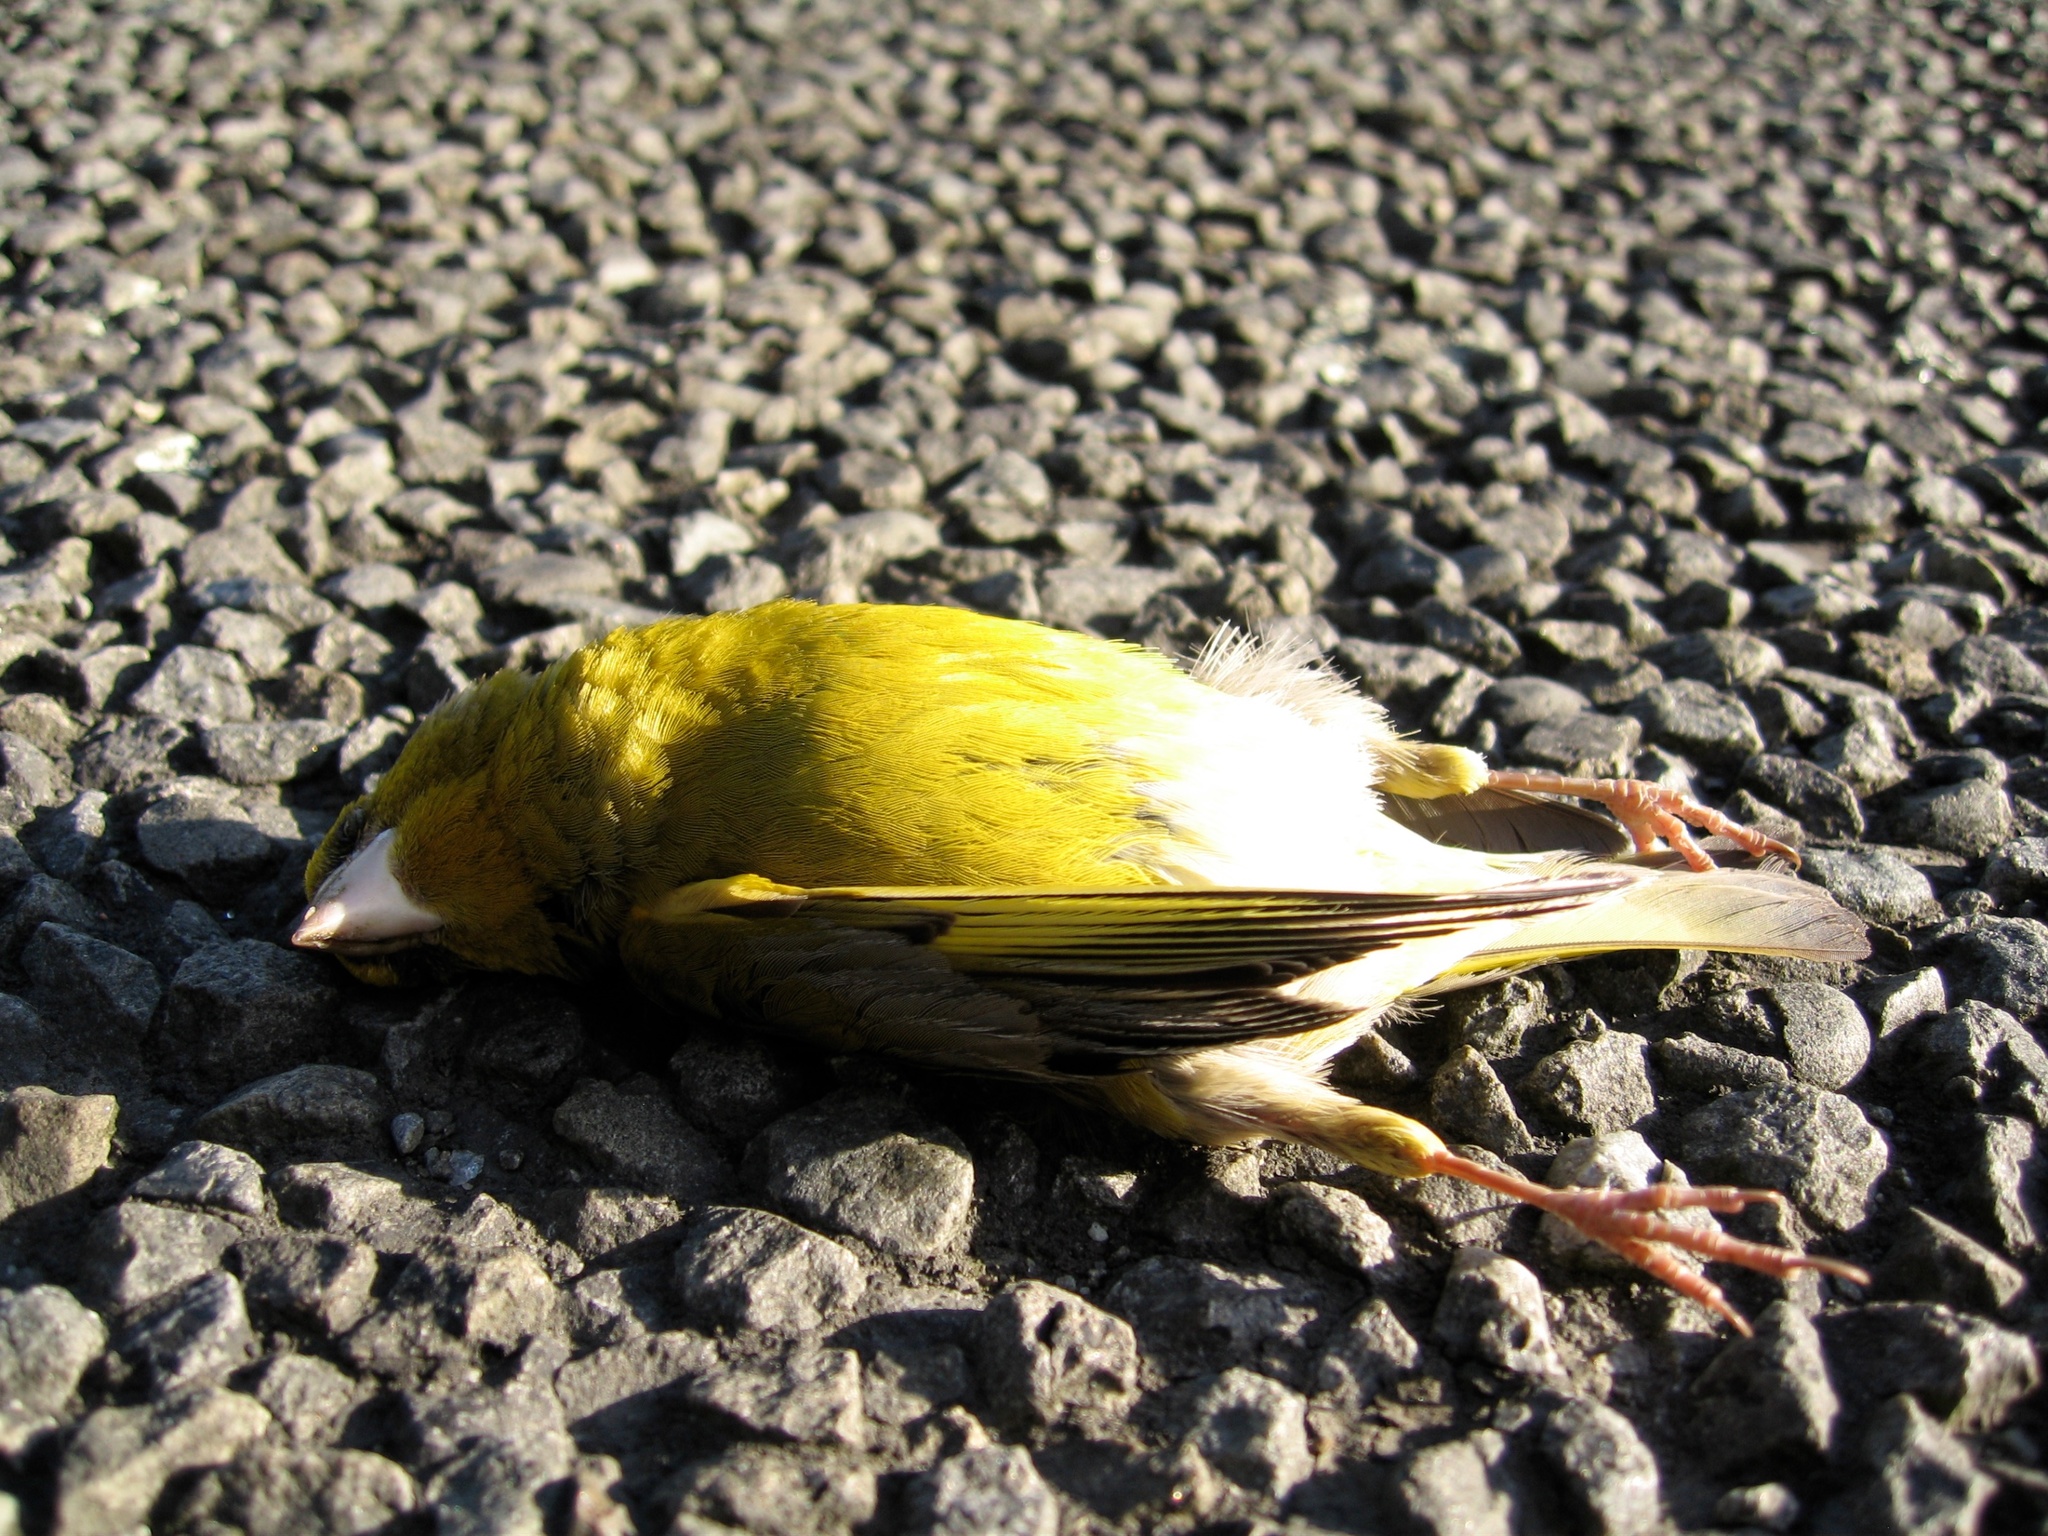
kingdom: Plantae
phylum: Tracheophyta
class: Liliopsida
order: Poales
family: Poaceae
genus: Chloris
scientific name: Chloris chloris
